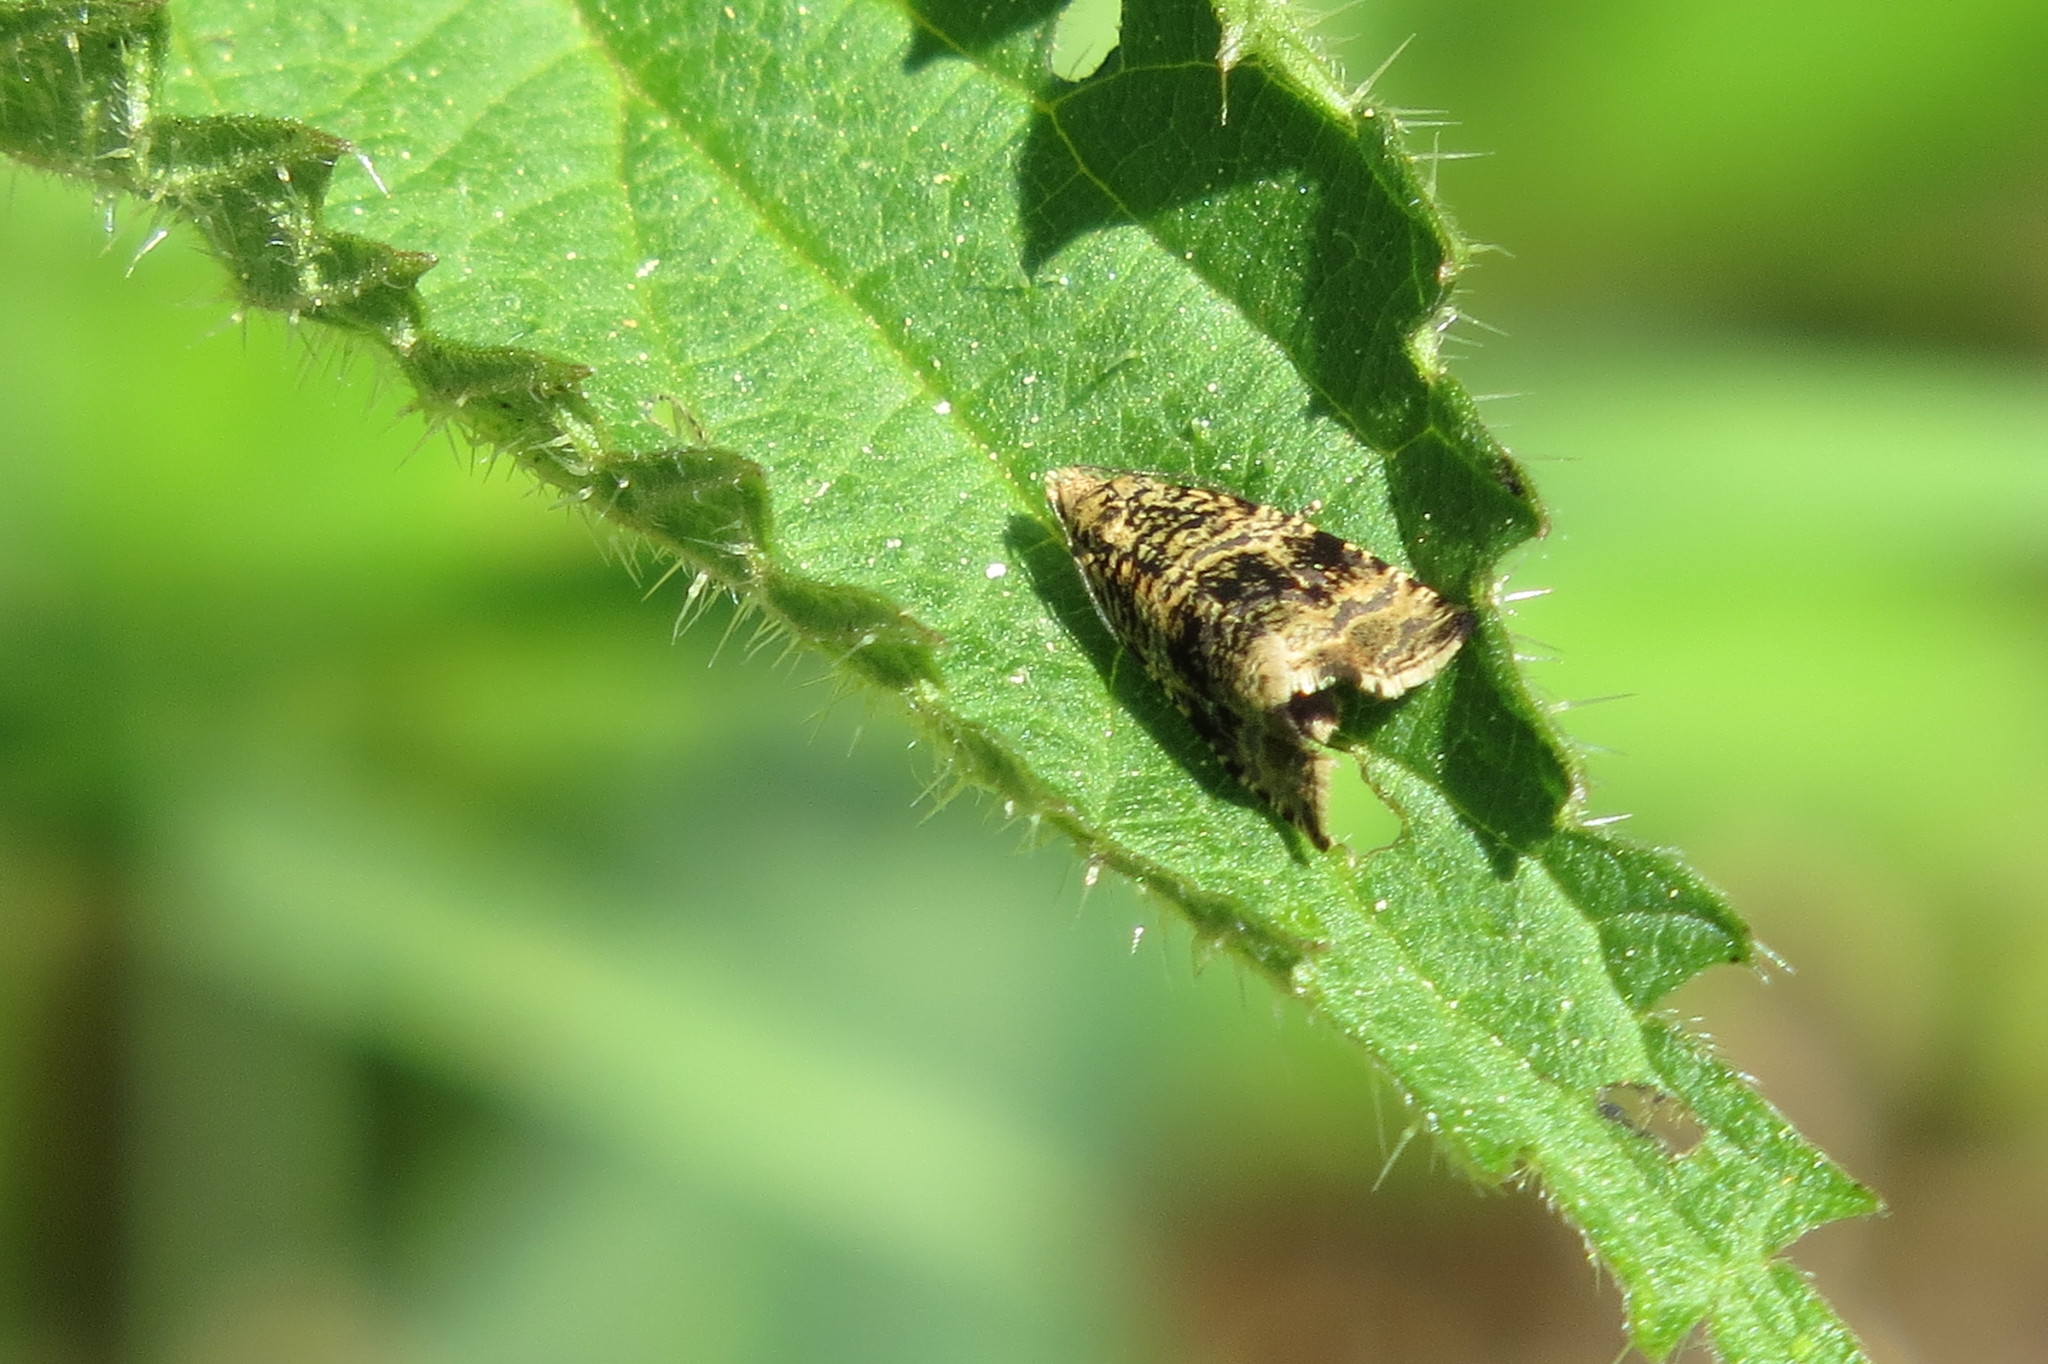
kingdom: Animalia
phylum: Arthropoda
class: Insecta
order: Lepidoptera
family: Tortricidae
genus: Syricoris
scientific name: Syricoris lacunana
